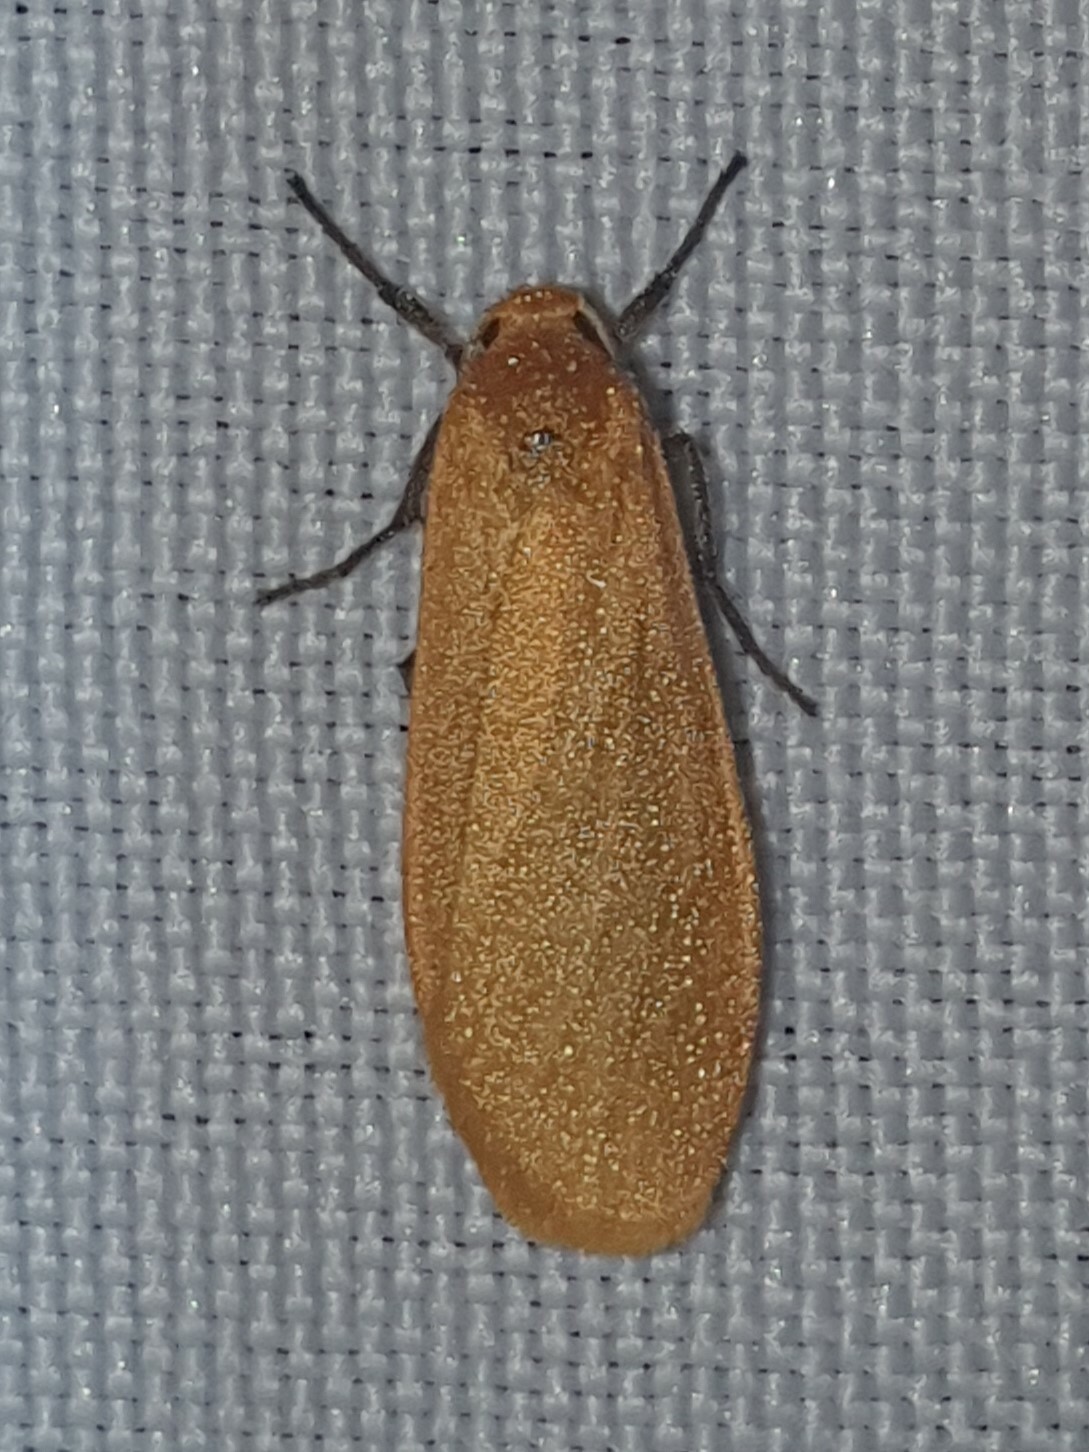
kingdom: Animalia
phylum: Arthropoda
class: Insecta
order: Lepidoptera
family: Erebidae
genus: Wittia
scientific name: Wittia sororcula
